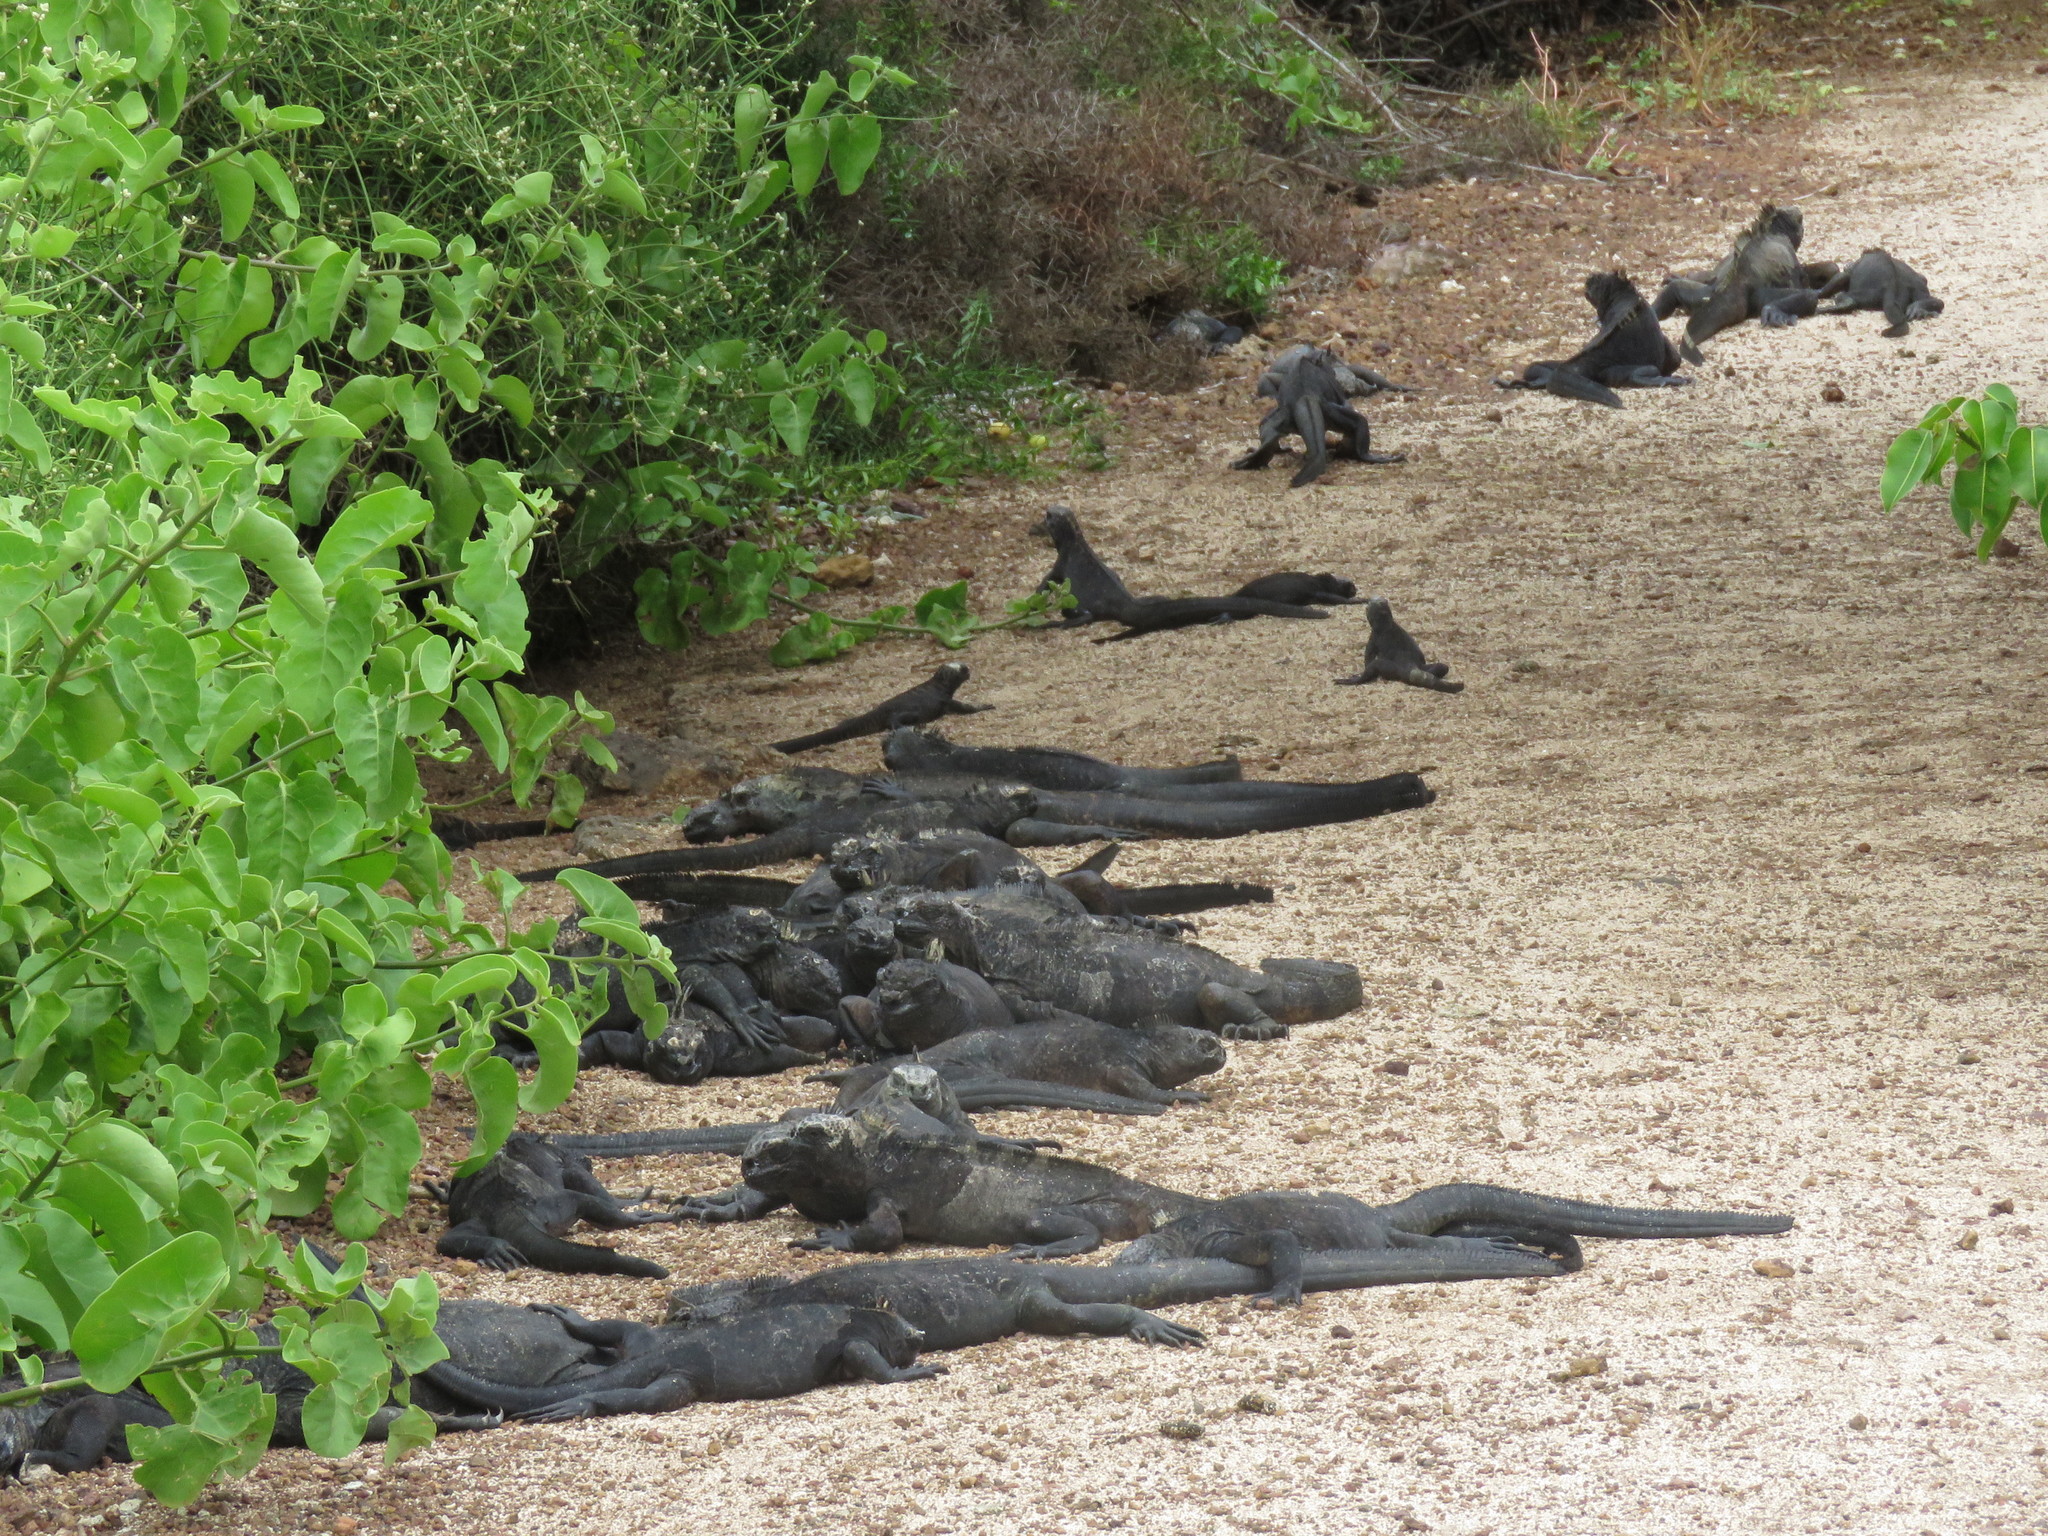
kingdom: Animalia
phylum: Chordata
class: Squamata
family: Iguanidae
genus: Amblyrhynchus
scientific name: Amblyrhynchus cristatus
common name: Marine iguana
